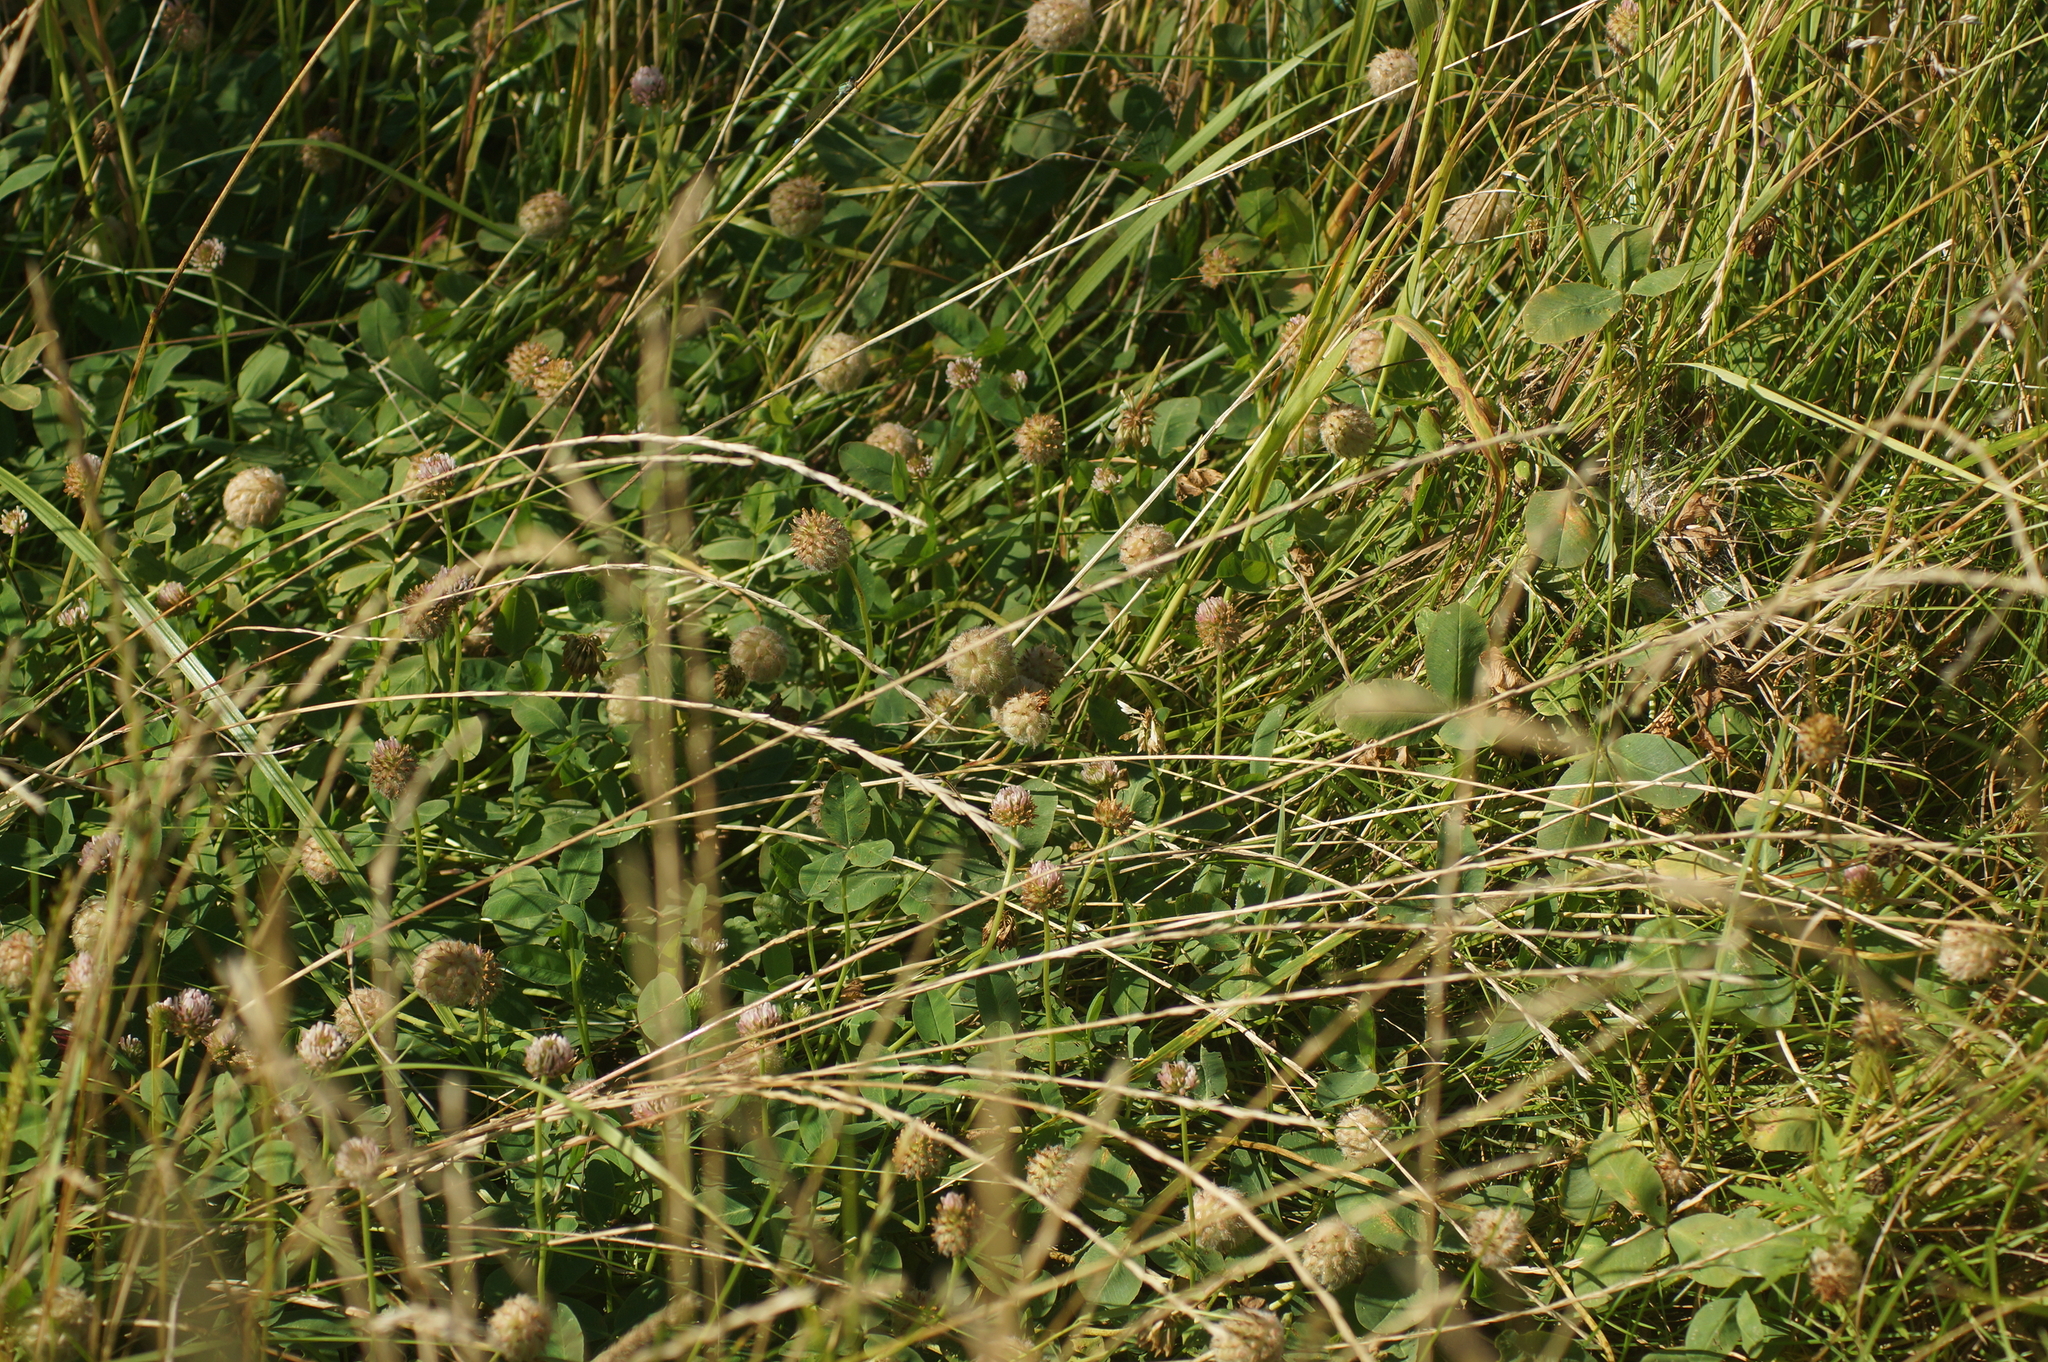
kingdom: Plantae
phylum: Tracheophyta
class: Magnoliopsida
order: Fabales
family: Fabaceae
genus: Trifolium
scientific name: Trifolium fragiferum
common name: Strawberry clover
